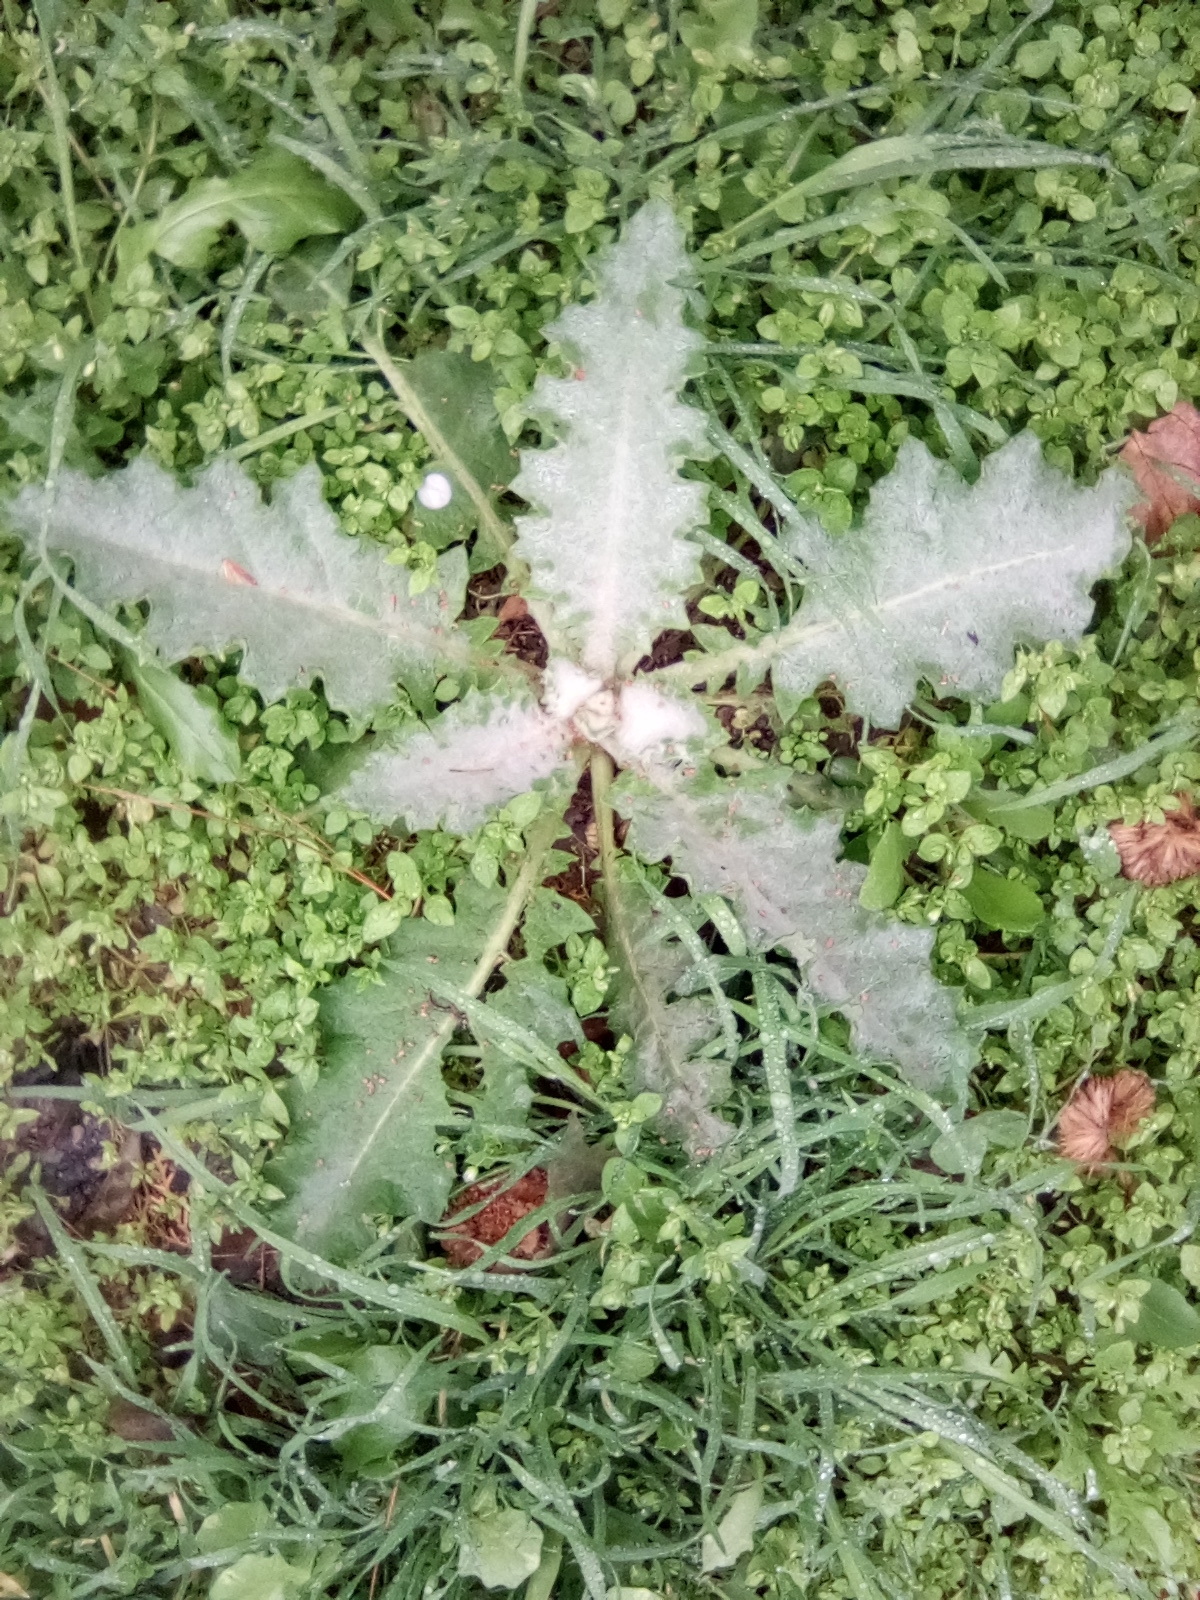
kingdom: Plantae
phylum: Tracheophyta
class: Magnoliopsida
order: Asterales
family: Asteraceae
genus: Onopordum
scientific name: Onopordum acanthium
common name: Scotch thistle
